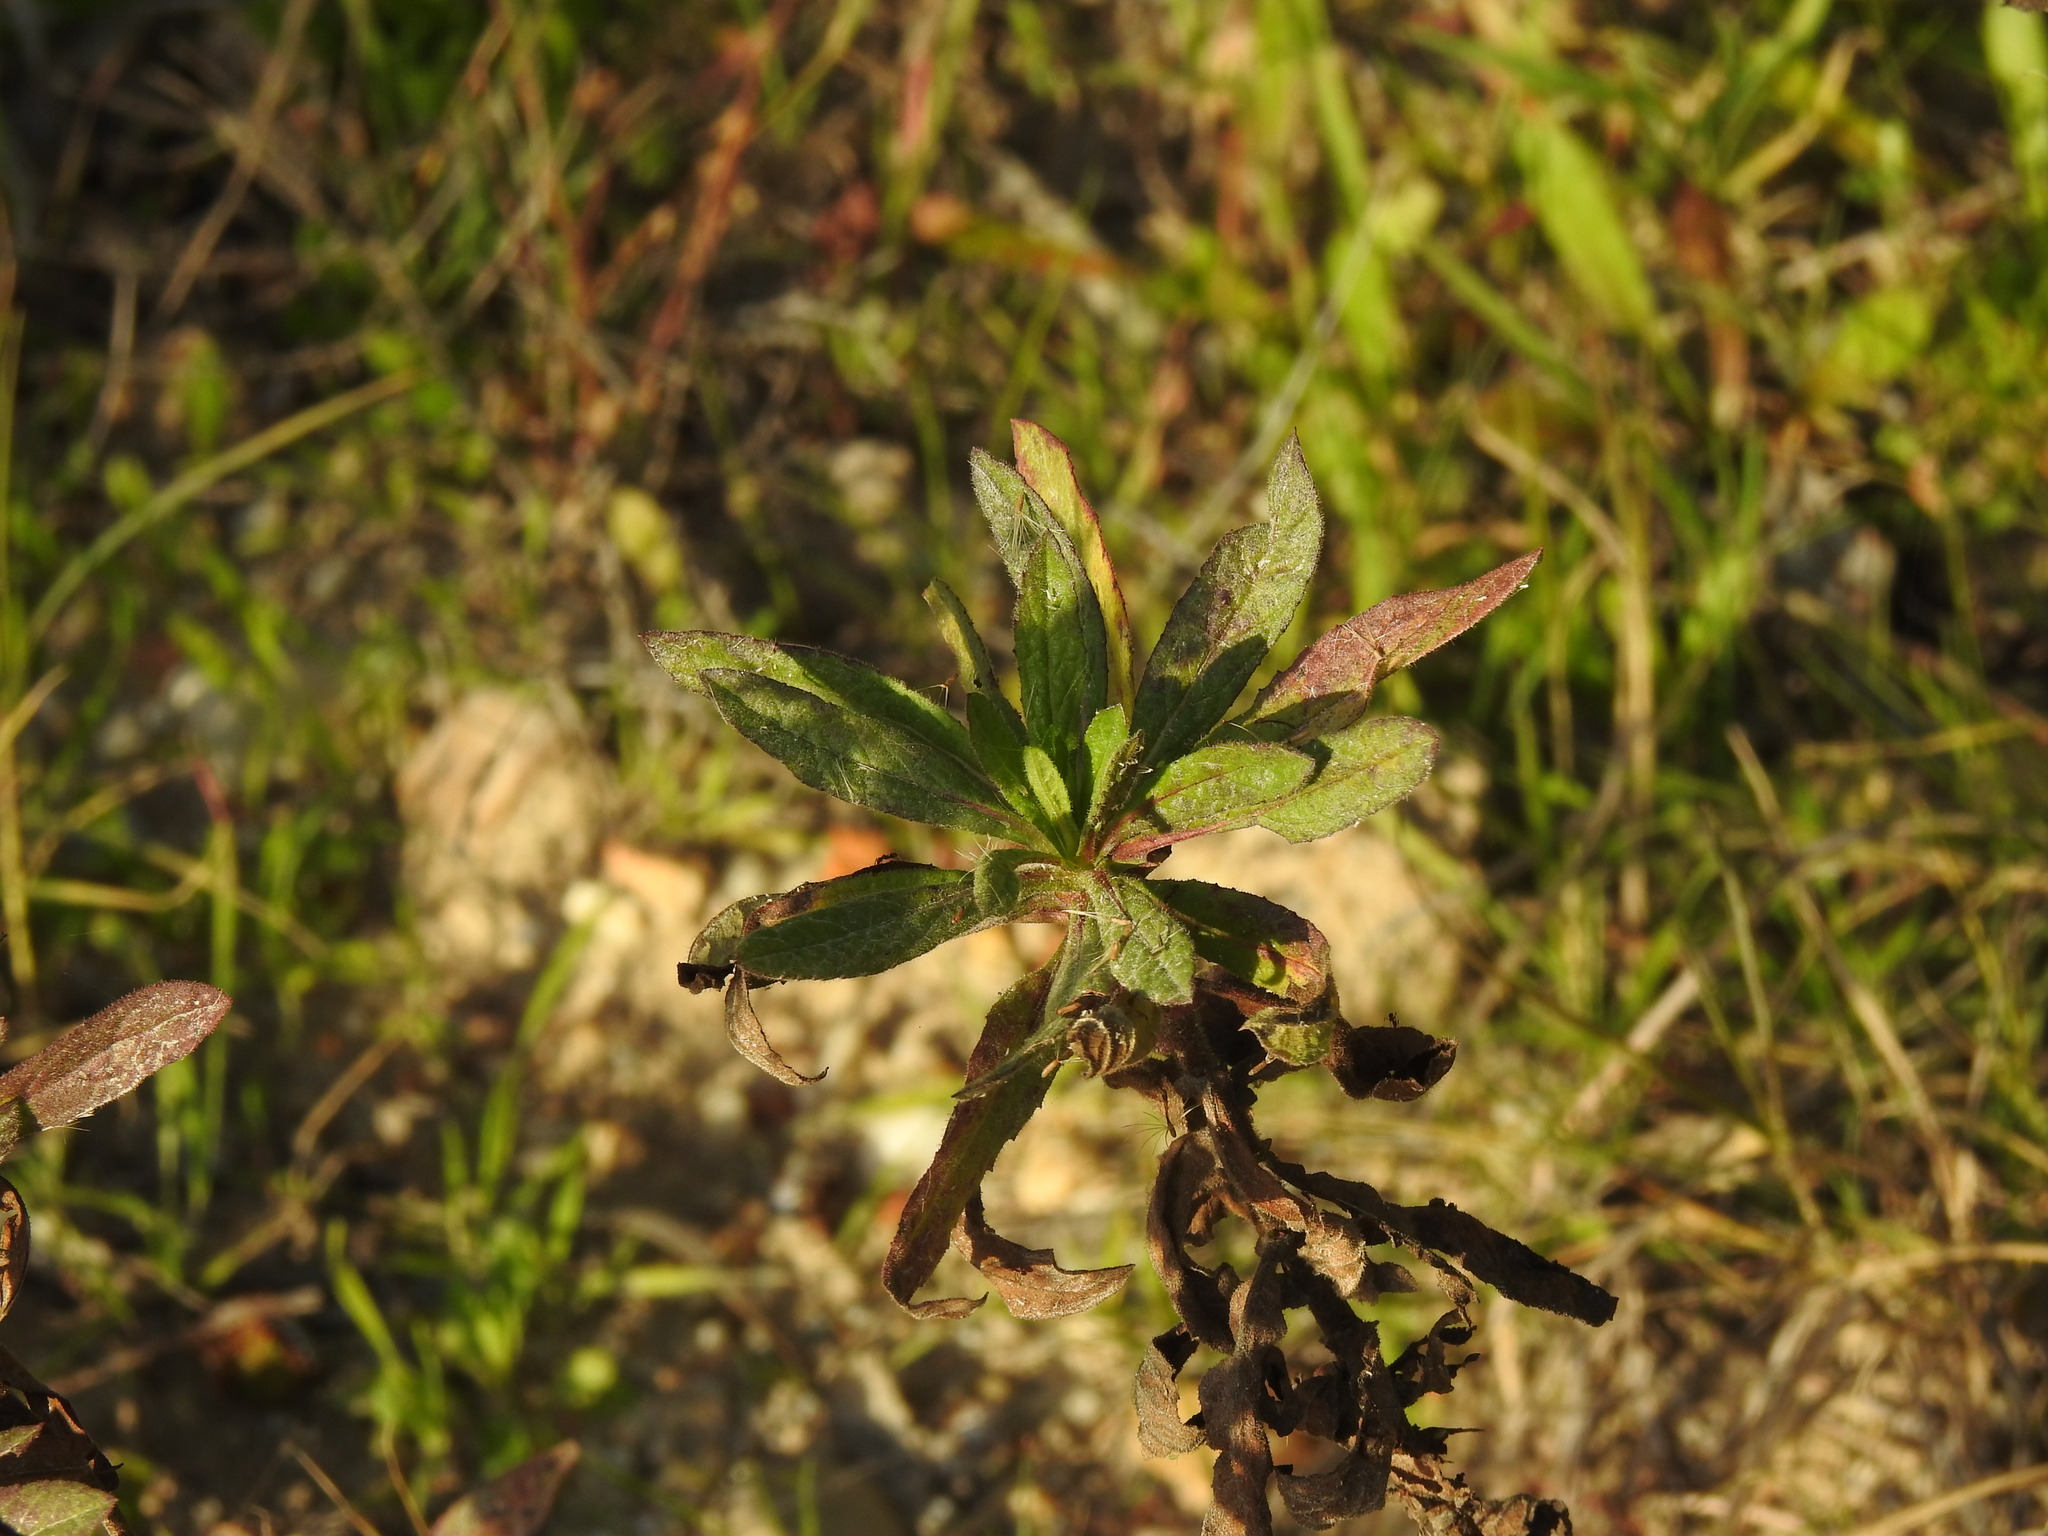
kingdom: Plantae
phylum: Tracheophyta
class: Magnoliopsida
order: Asterales
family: Asteraceae
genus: Dittrichia
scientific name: Dittrichia viscosa
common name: Woody fleabane
